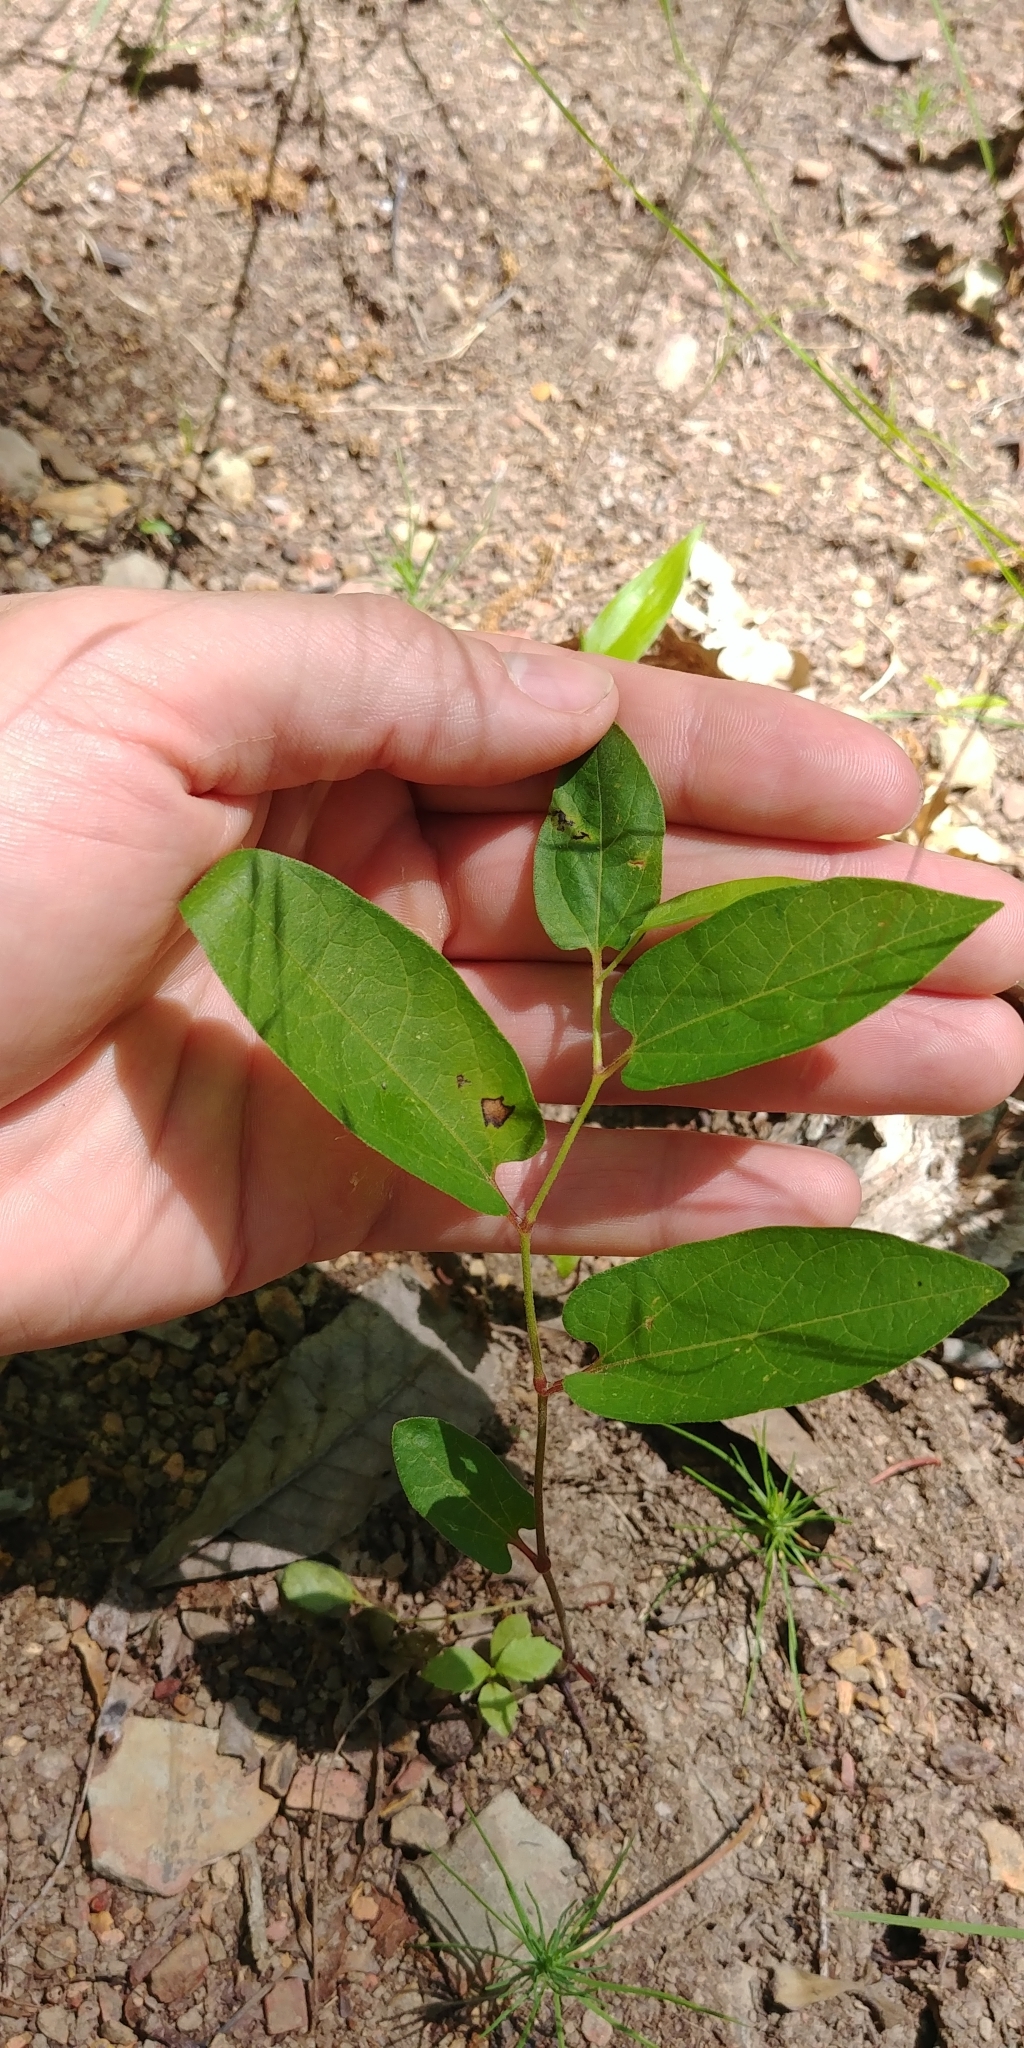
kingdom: Plantae
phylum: Tracheophyta
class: Magnoliopsida
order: Piperales
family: Aristolochiaceae
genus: Endodeca
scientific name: Endodeca serpentaria
